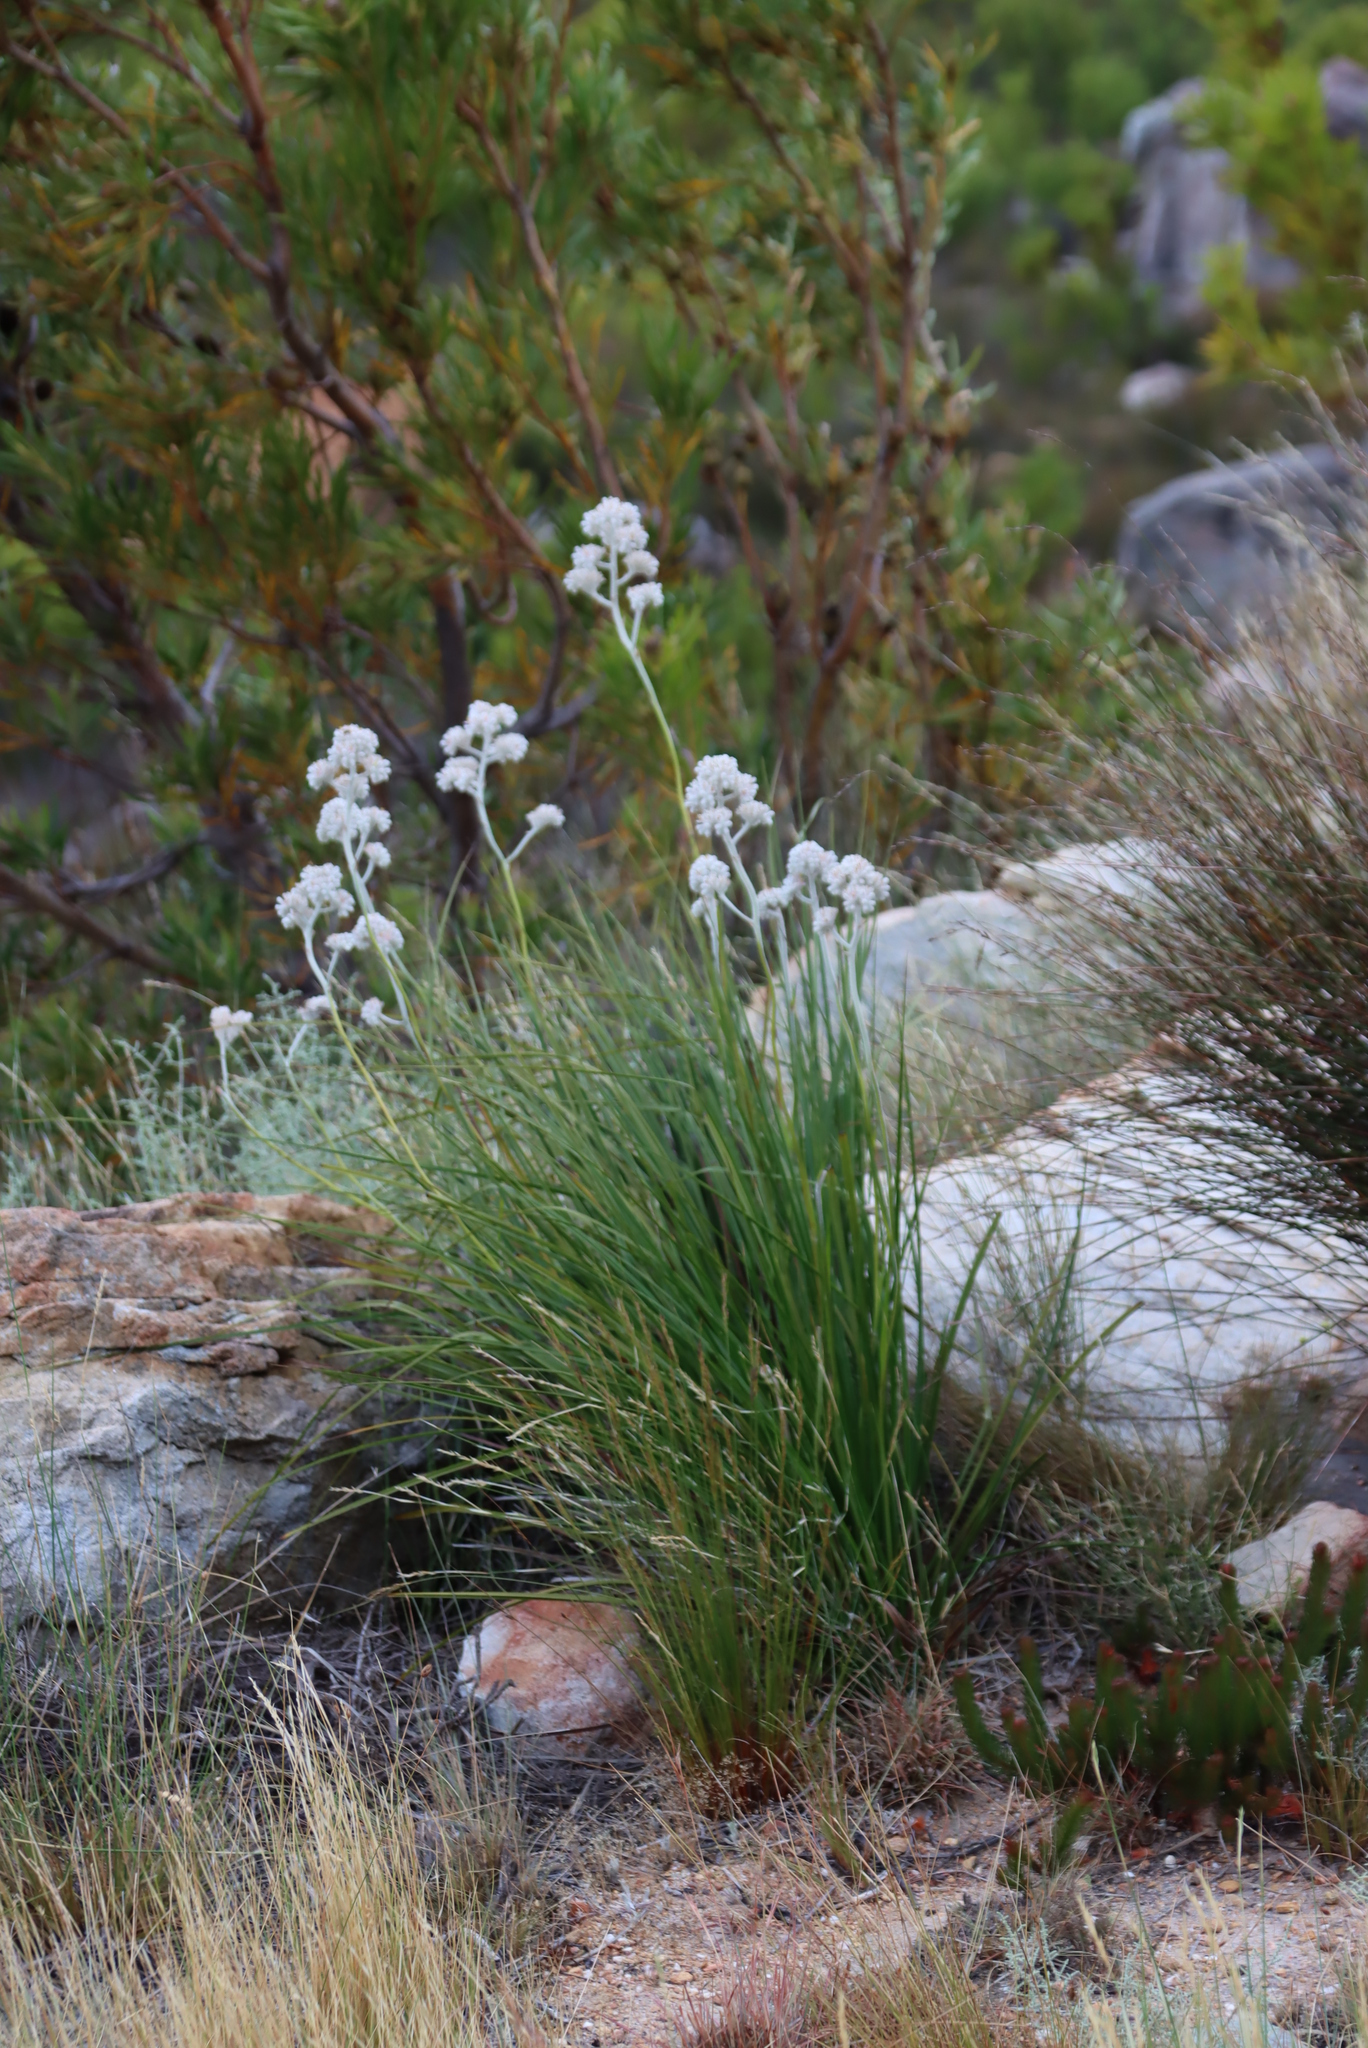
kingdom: Plantae
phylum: Tracheophyta
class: Liliopsida
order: Asparagales
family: Lanariaceae
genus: Lanaria
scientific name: Lanaria lanata
